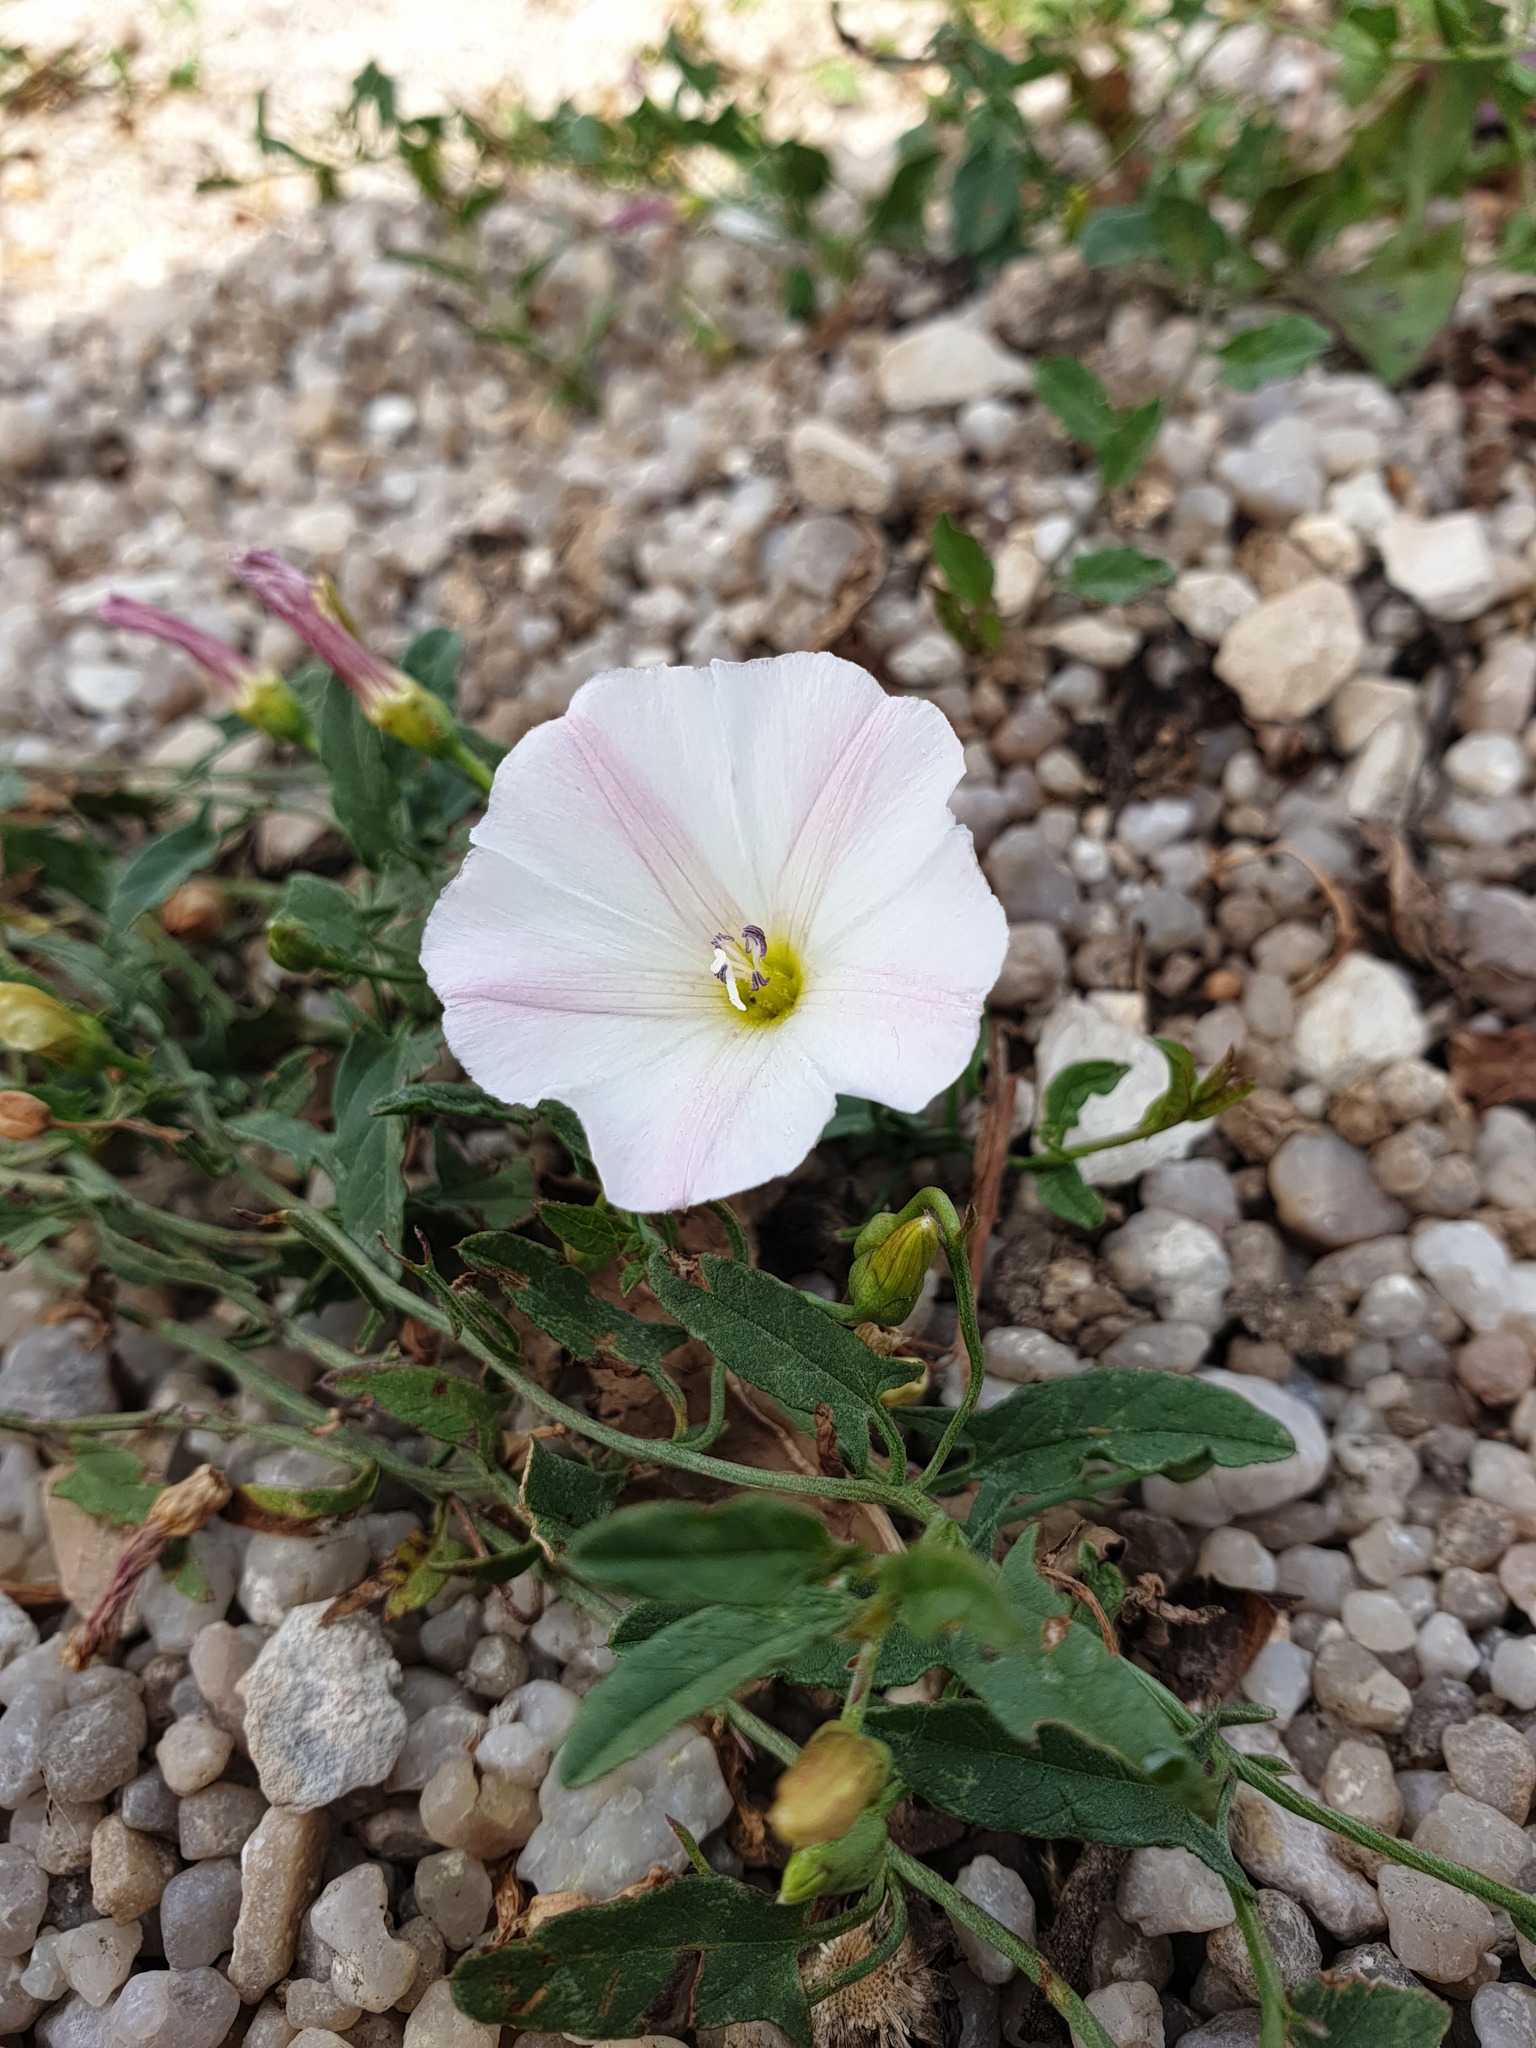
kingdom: Plantae
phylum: Tracheophyta
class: Magnoliopsida
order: Solanales
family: Convolvulaceae
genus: Convolvulus
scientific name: Convolvulus arvensis
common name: Field bindweed
